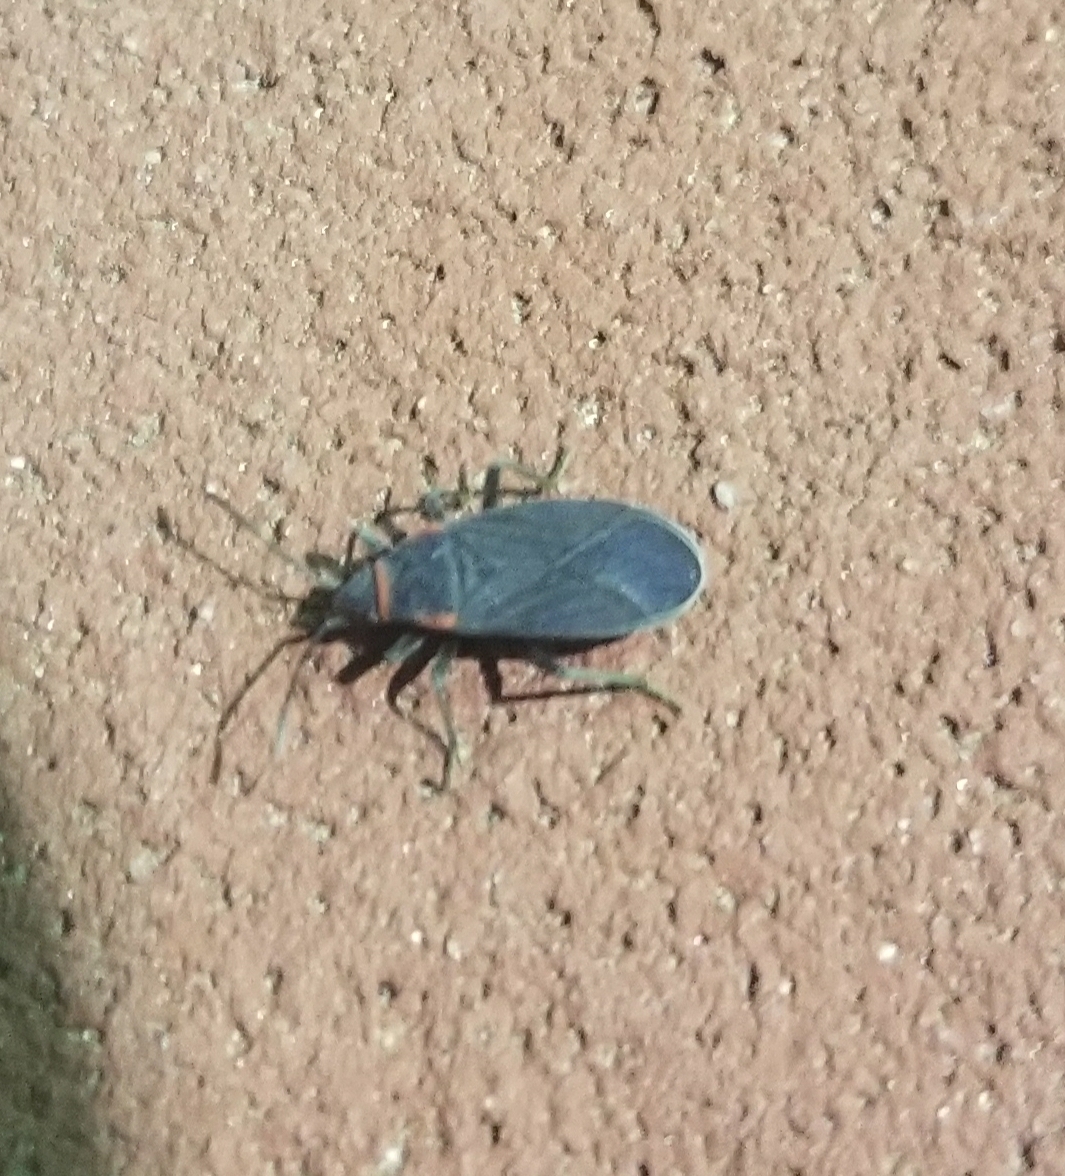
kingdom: Animalia
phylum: Arthropoda
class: Insecta
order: Hemiptera
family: Lygaeidae
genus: Melacoryphus
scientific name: Melacoryphus rubicollis
